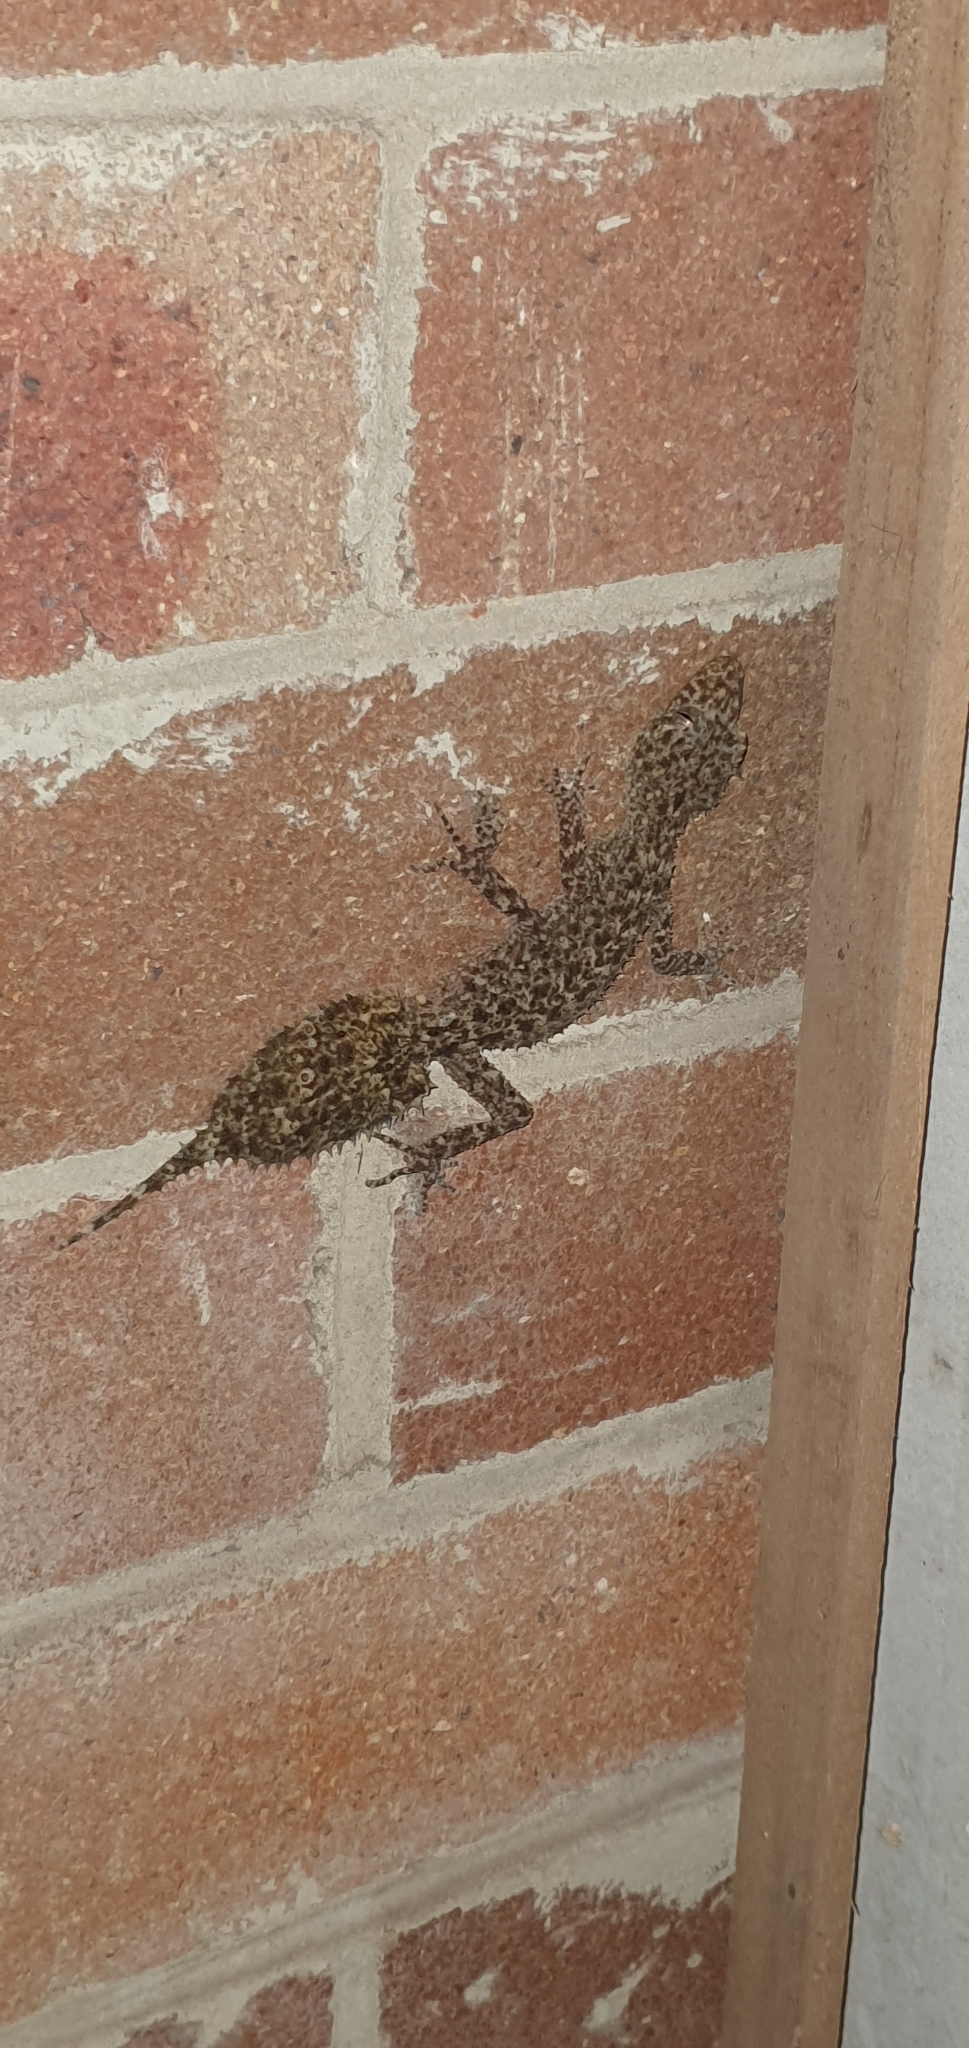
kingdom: Animalia
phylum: Chordata
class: Squamata
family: Carphodactylidae
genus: Phyllurus
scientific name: Phyllurus platurus
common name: Broad-tailed gecko
